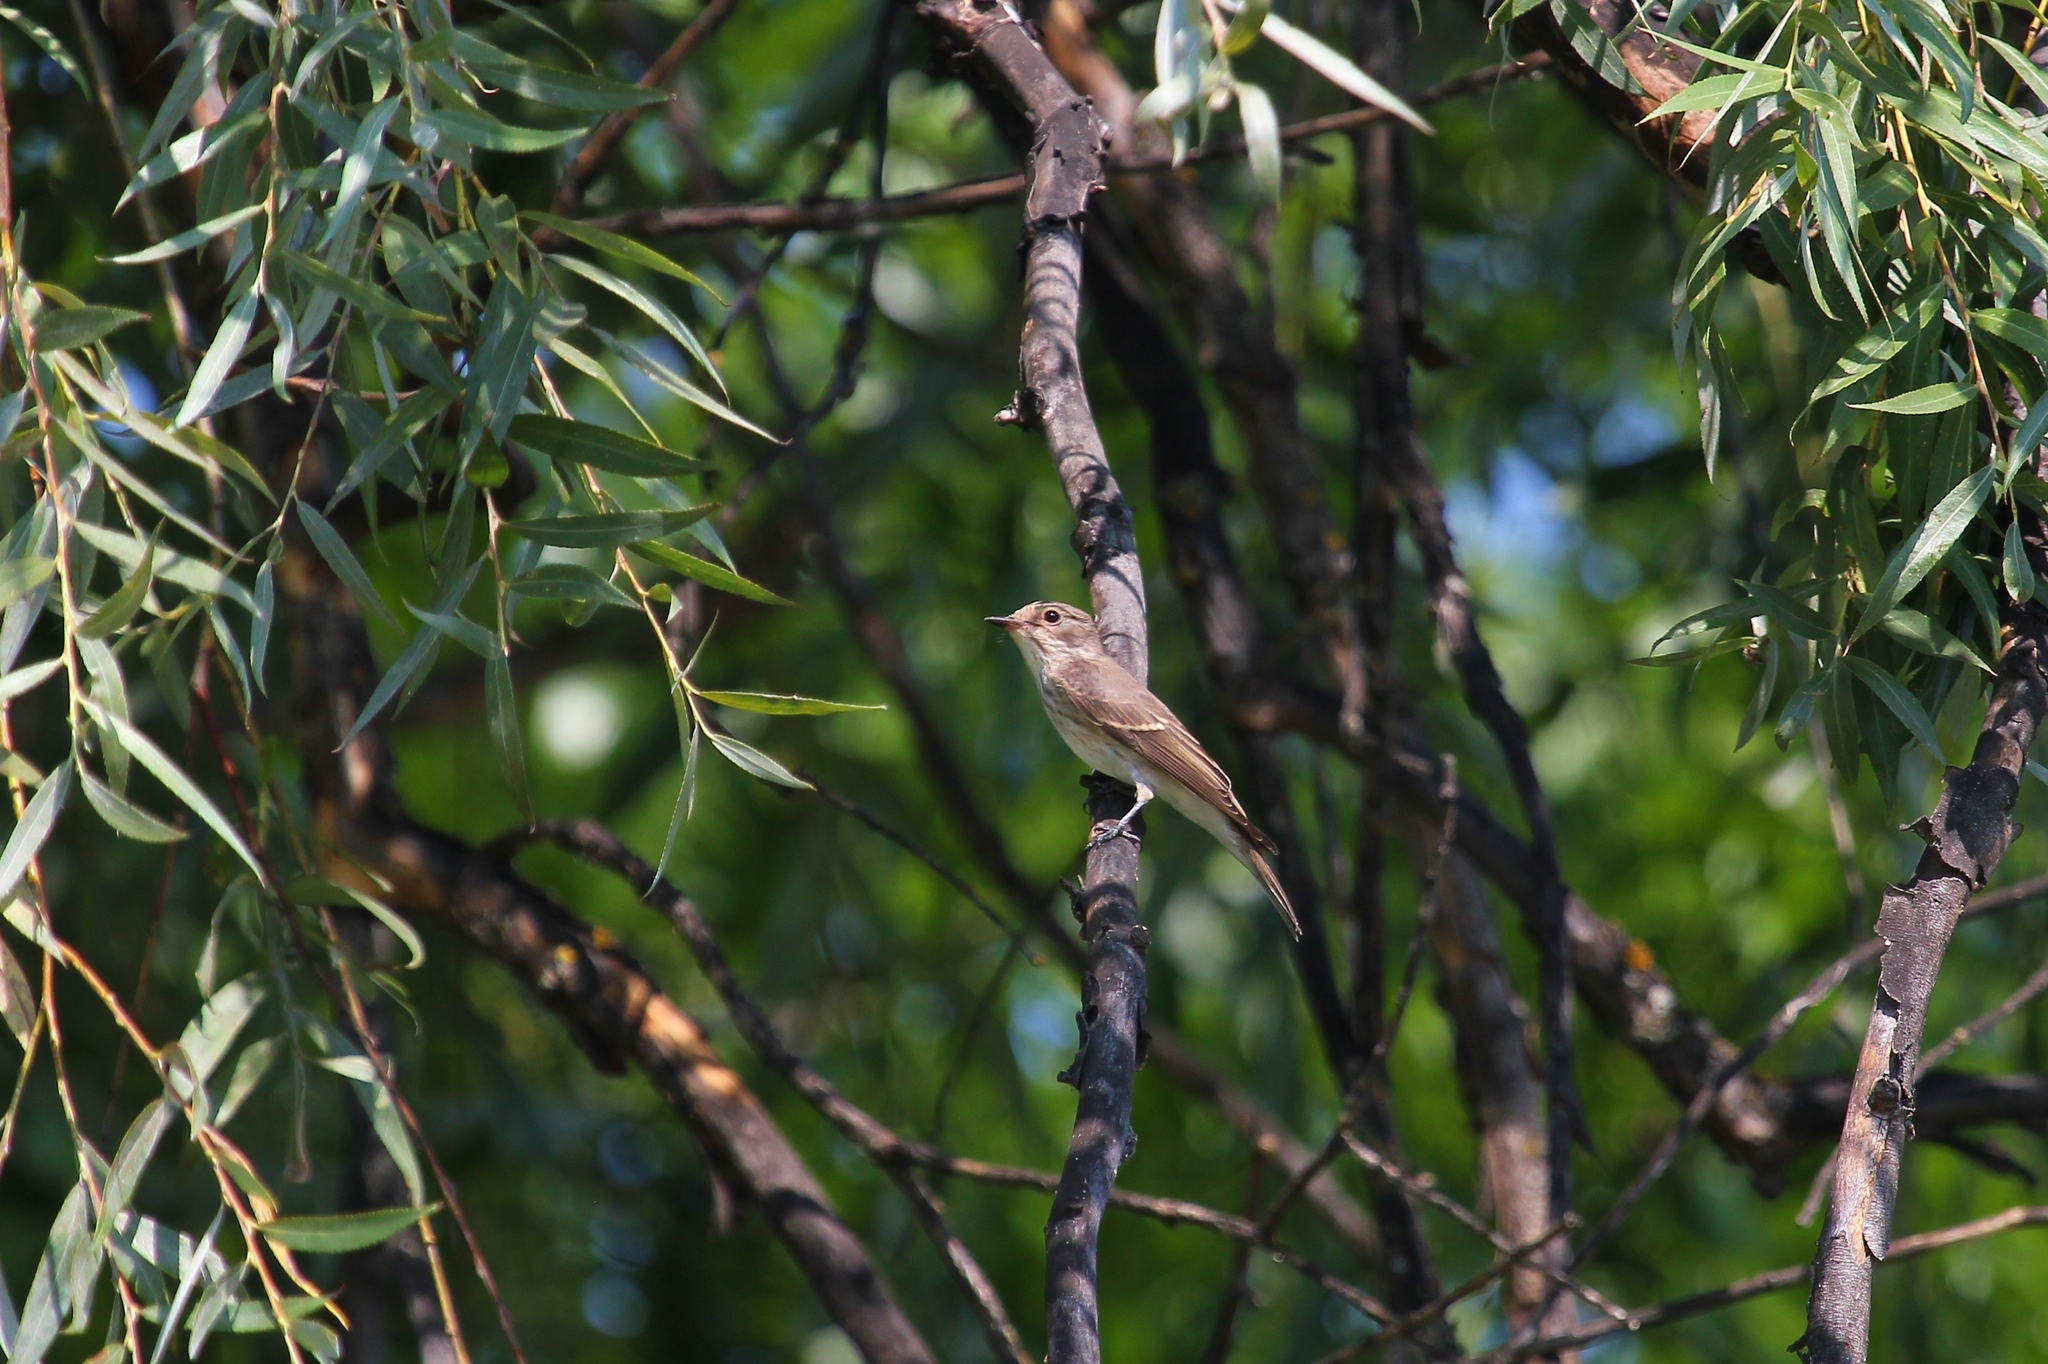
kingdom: Animalia
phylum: Chordata
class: Aves
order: Passeriformes
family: Muscicapidae
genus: Muscicapa
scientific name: Muscicapa striata
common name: Spotted flycatcher
